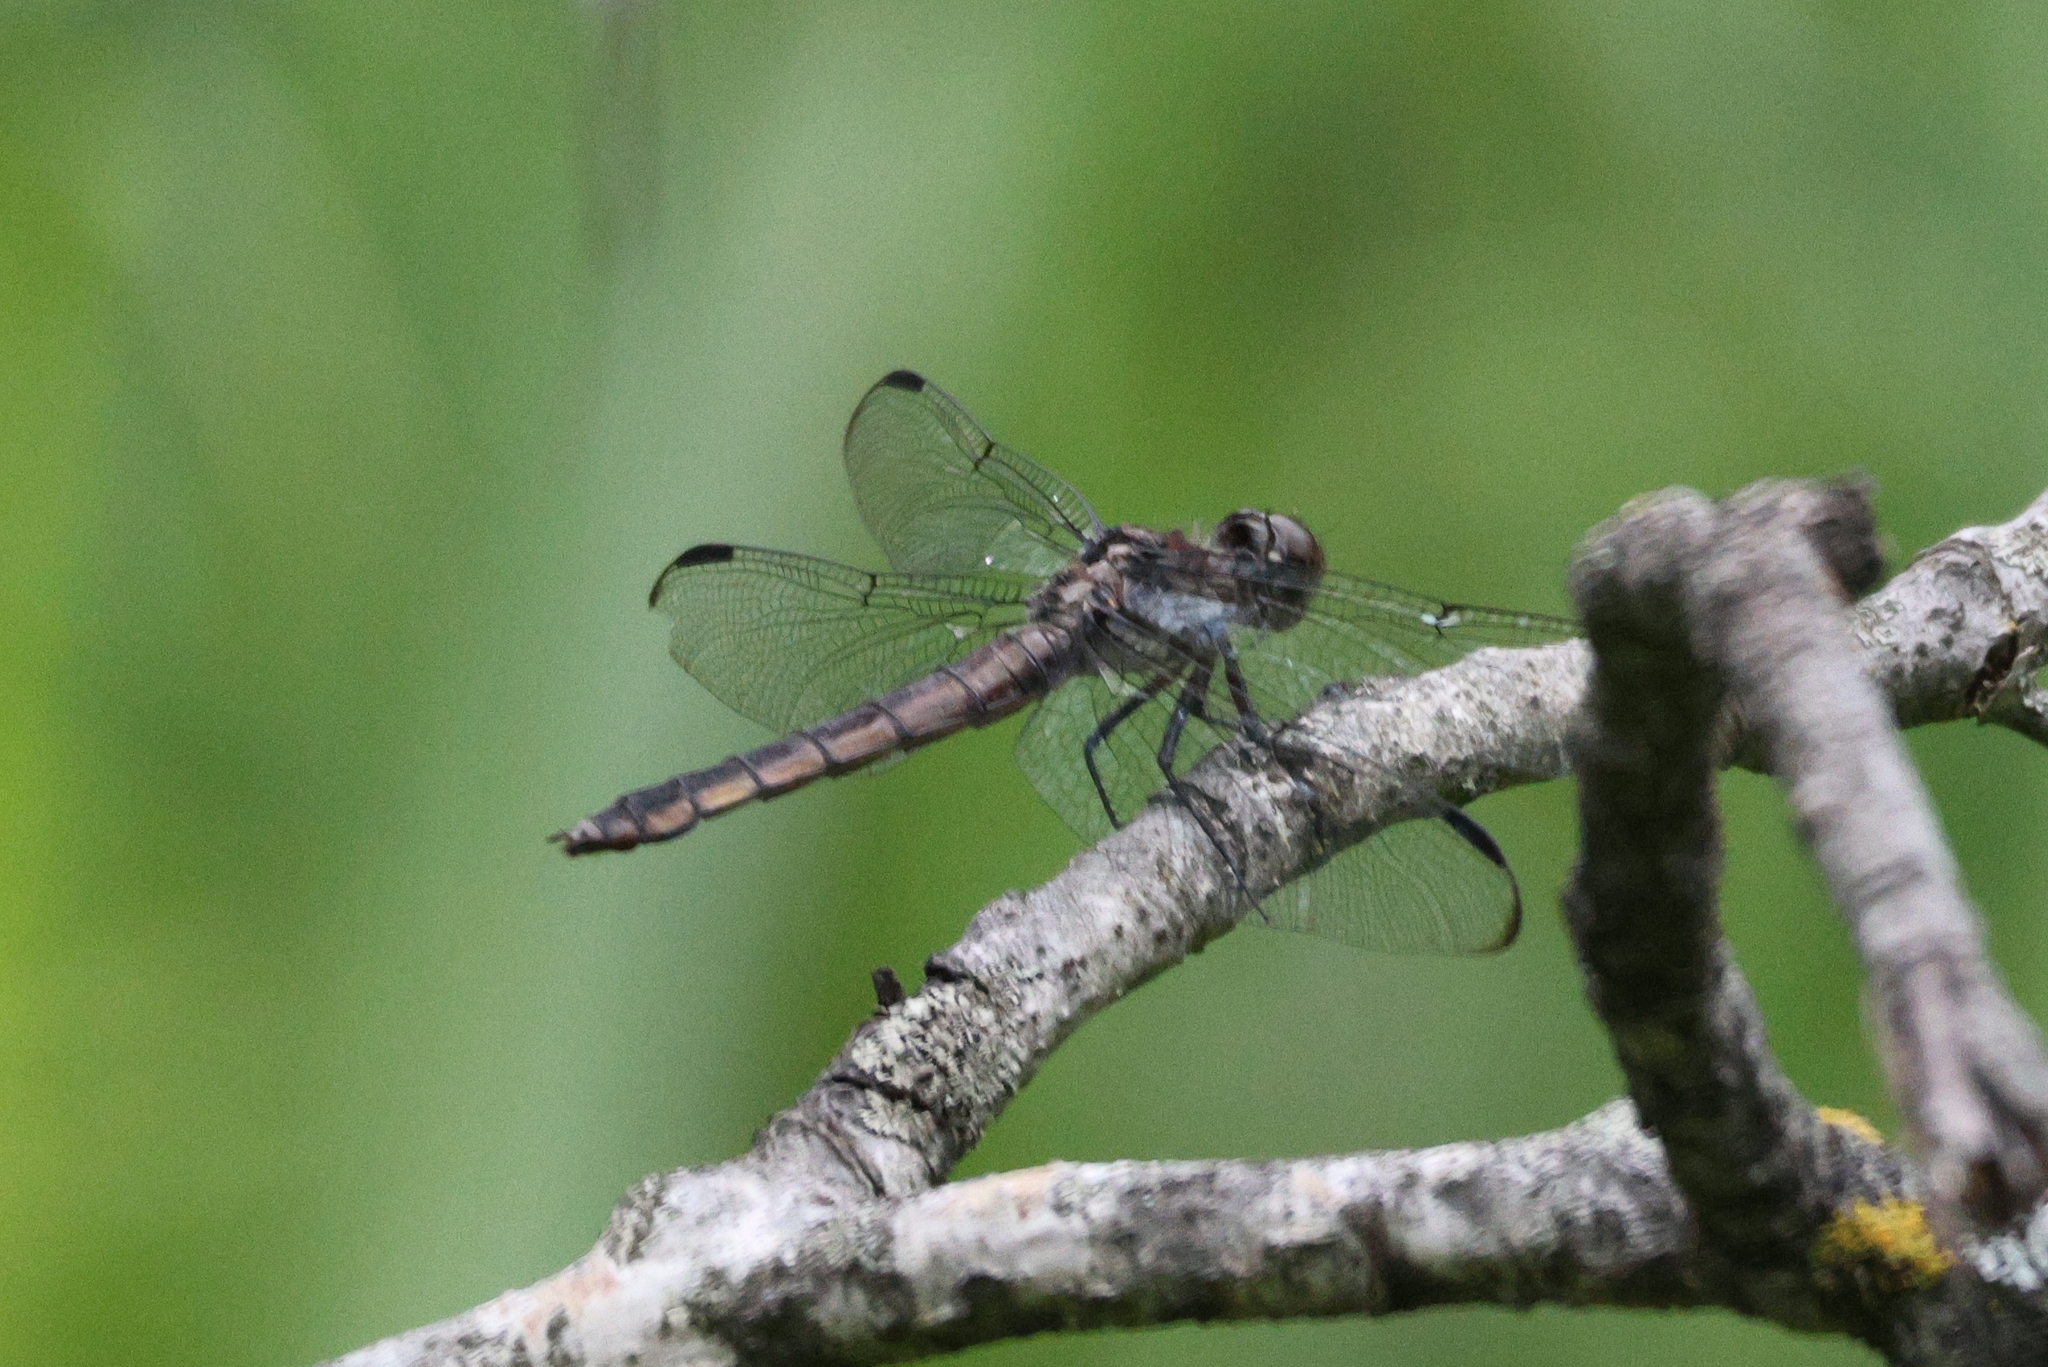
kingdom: Animalia
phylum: Arthropoda
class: Insecta
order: Odonata
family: Libellulidae
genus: Libellula
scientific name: Libellula incesta
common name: Slaty skimmer
